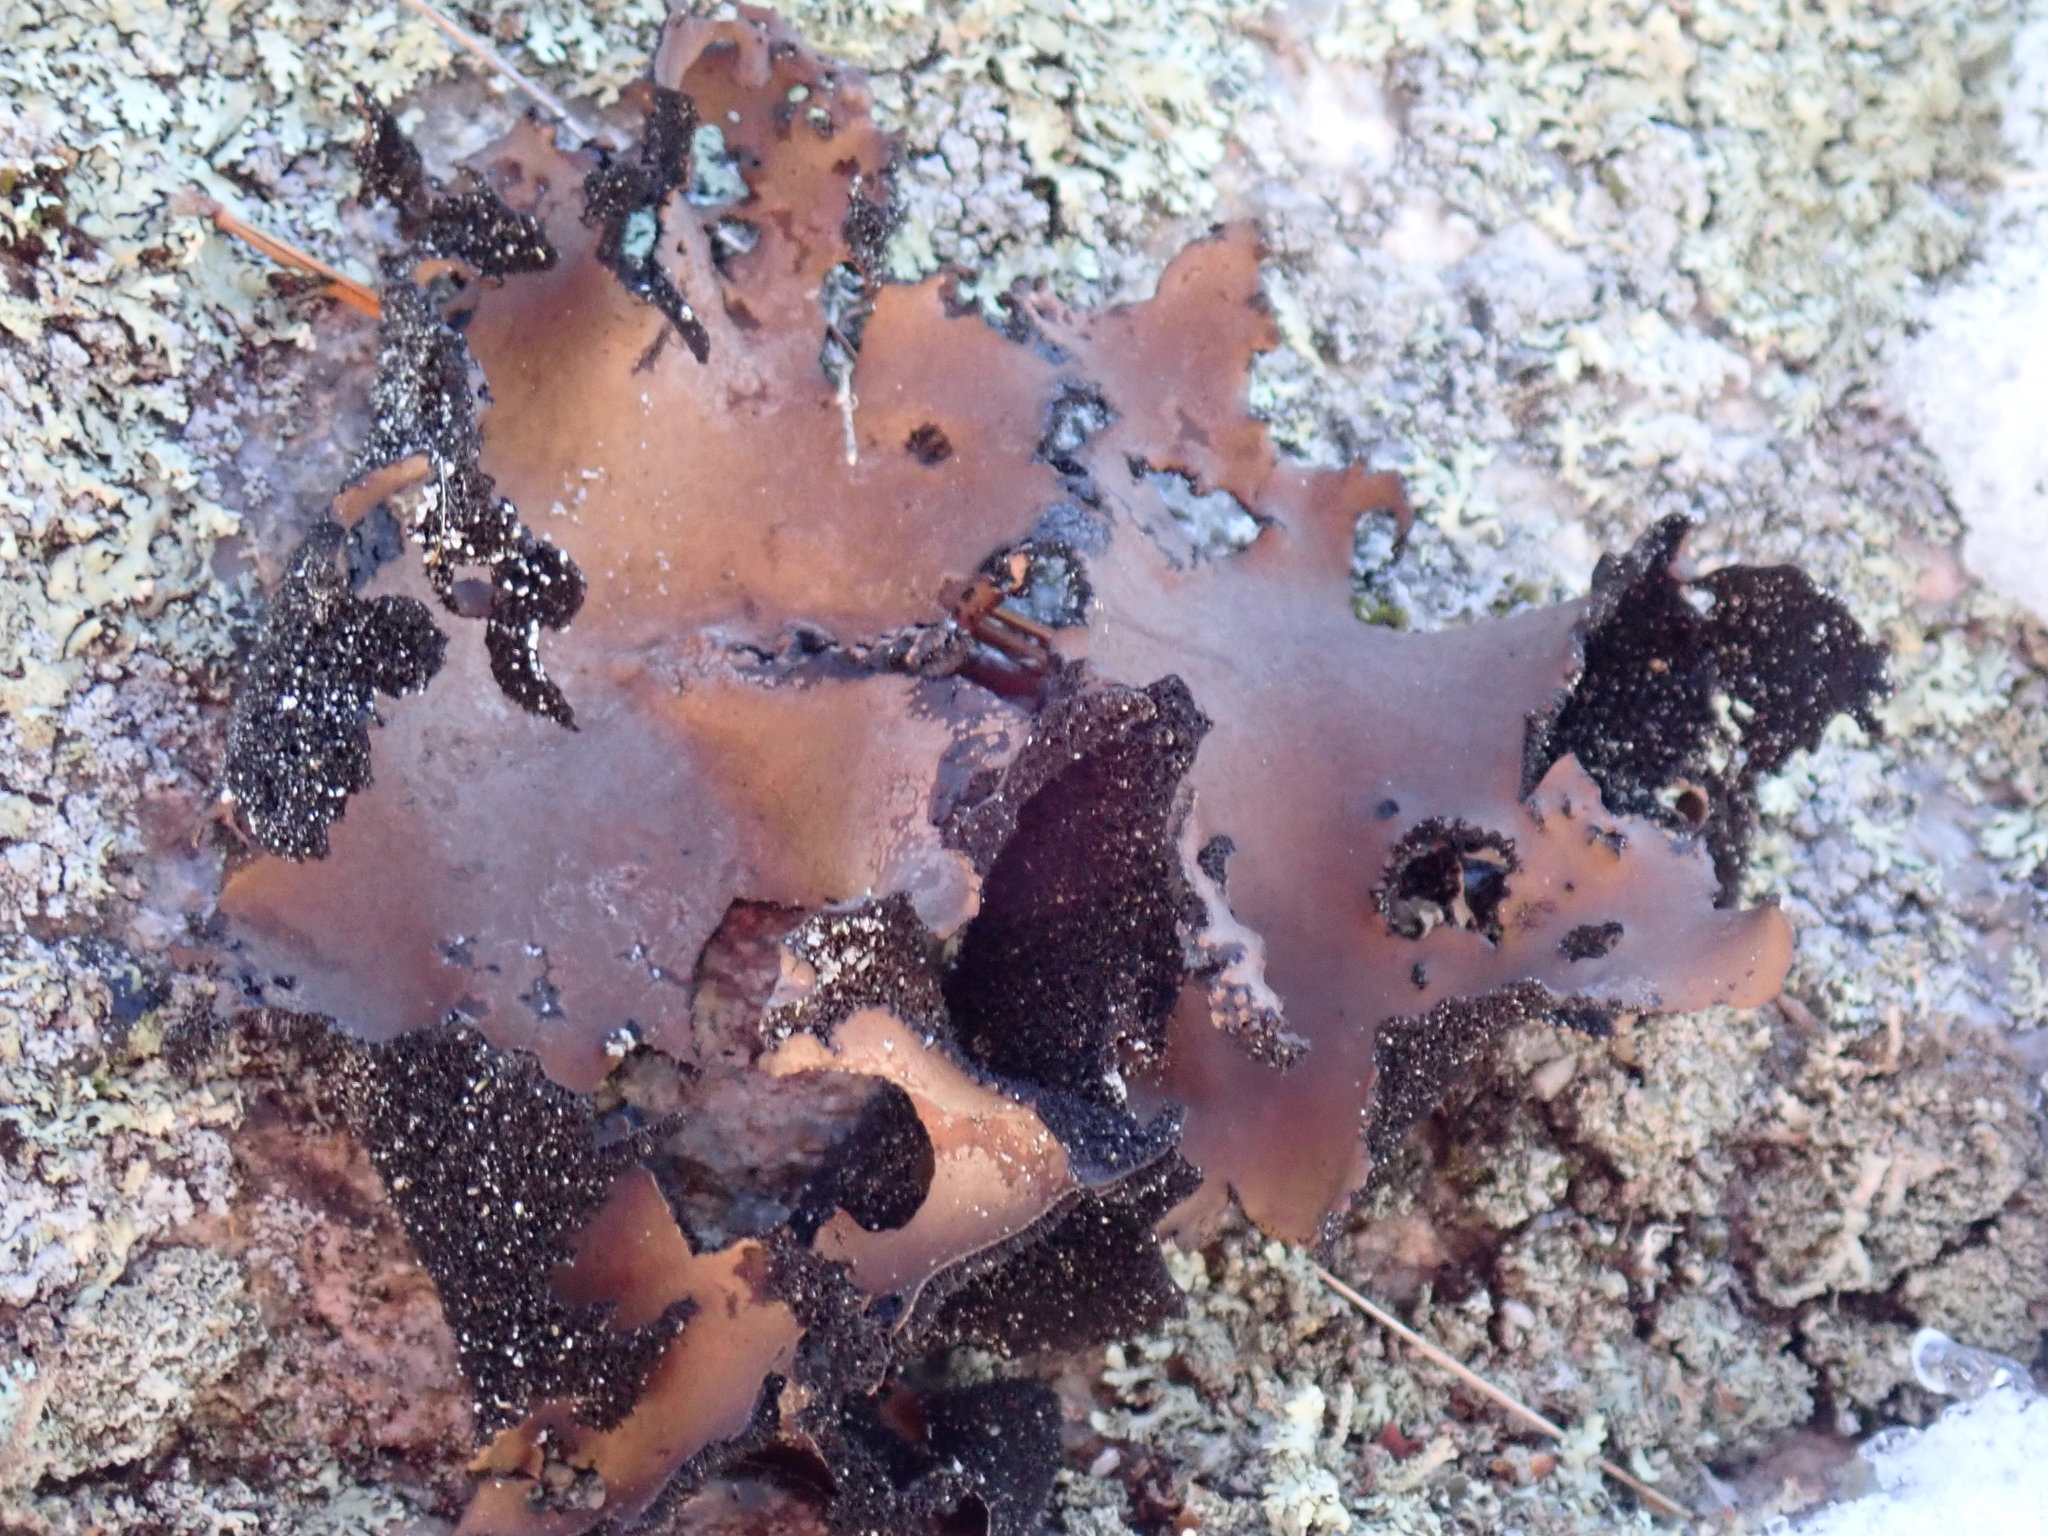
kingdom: Fungi
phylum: Ascomycota
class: Lecanoromycetes
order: Umbilicariales
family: Umbilicariaceae
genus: Umbilicaria
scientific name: Umbilicaria mammulata
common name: Smooth rock tripe
